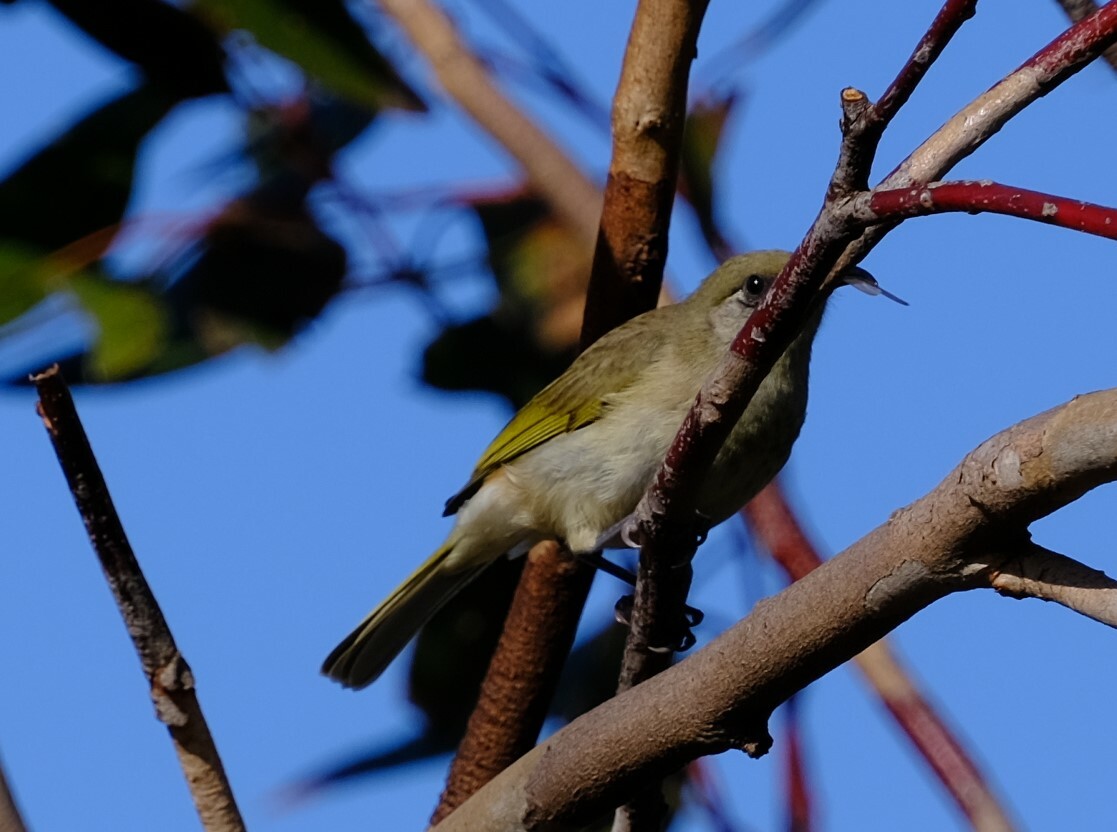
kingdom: Animalia
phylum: Chordata
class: Aves
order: Passeriformes
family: Meliphagidae
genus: Lichmera
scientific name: Lichmera indistincta
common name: Brown honeyeater
